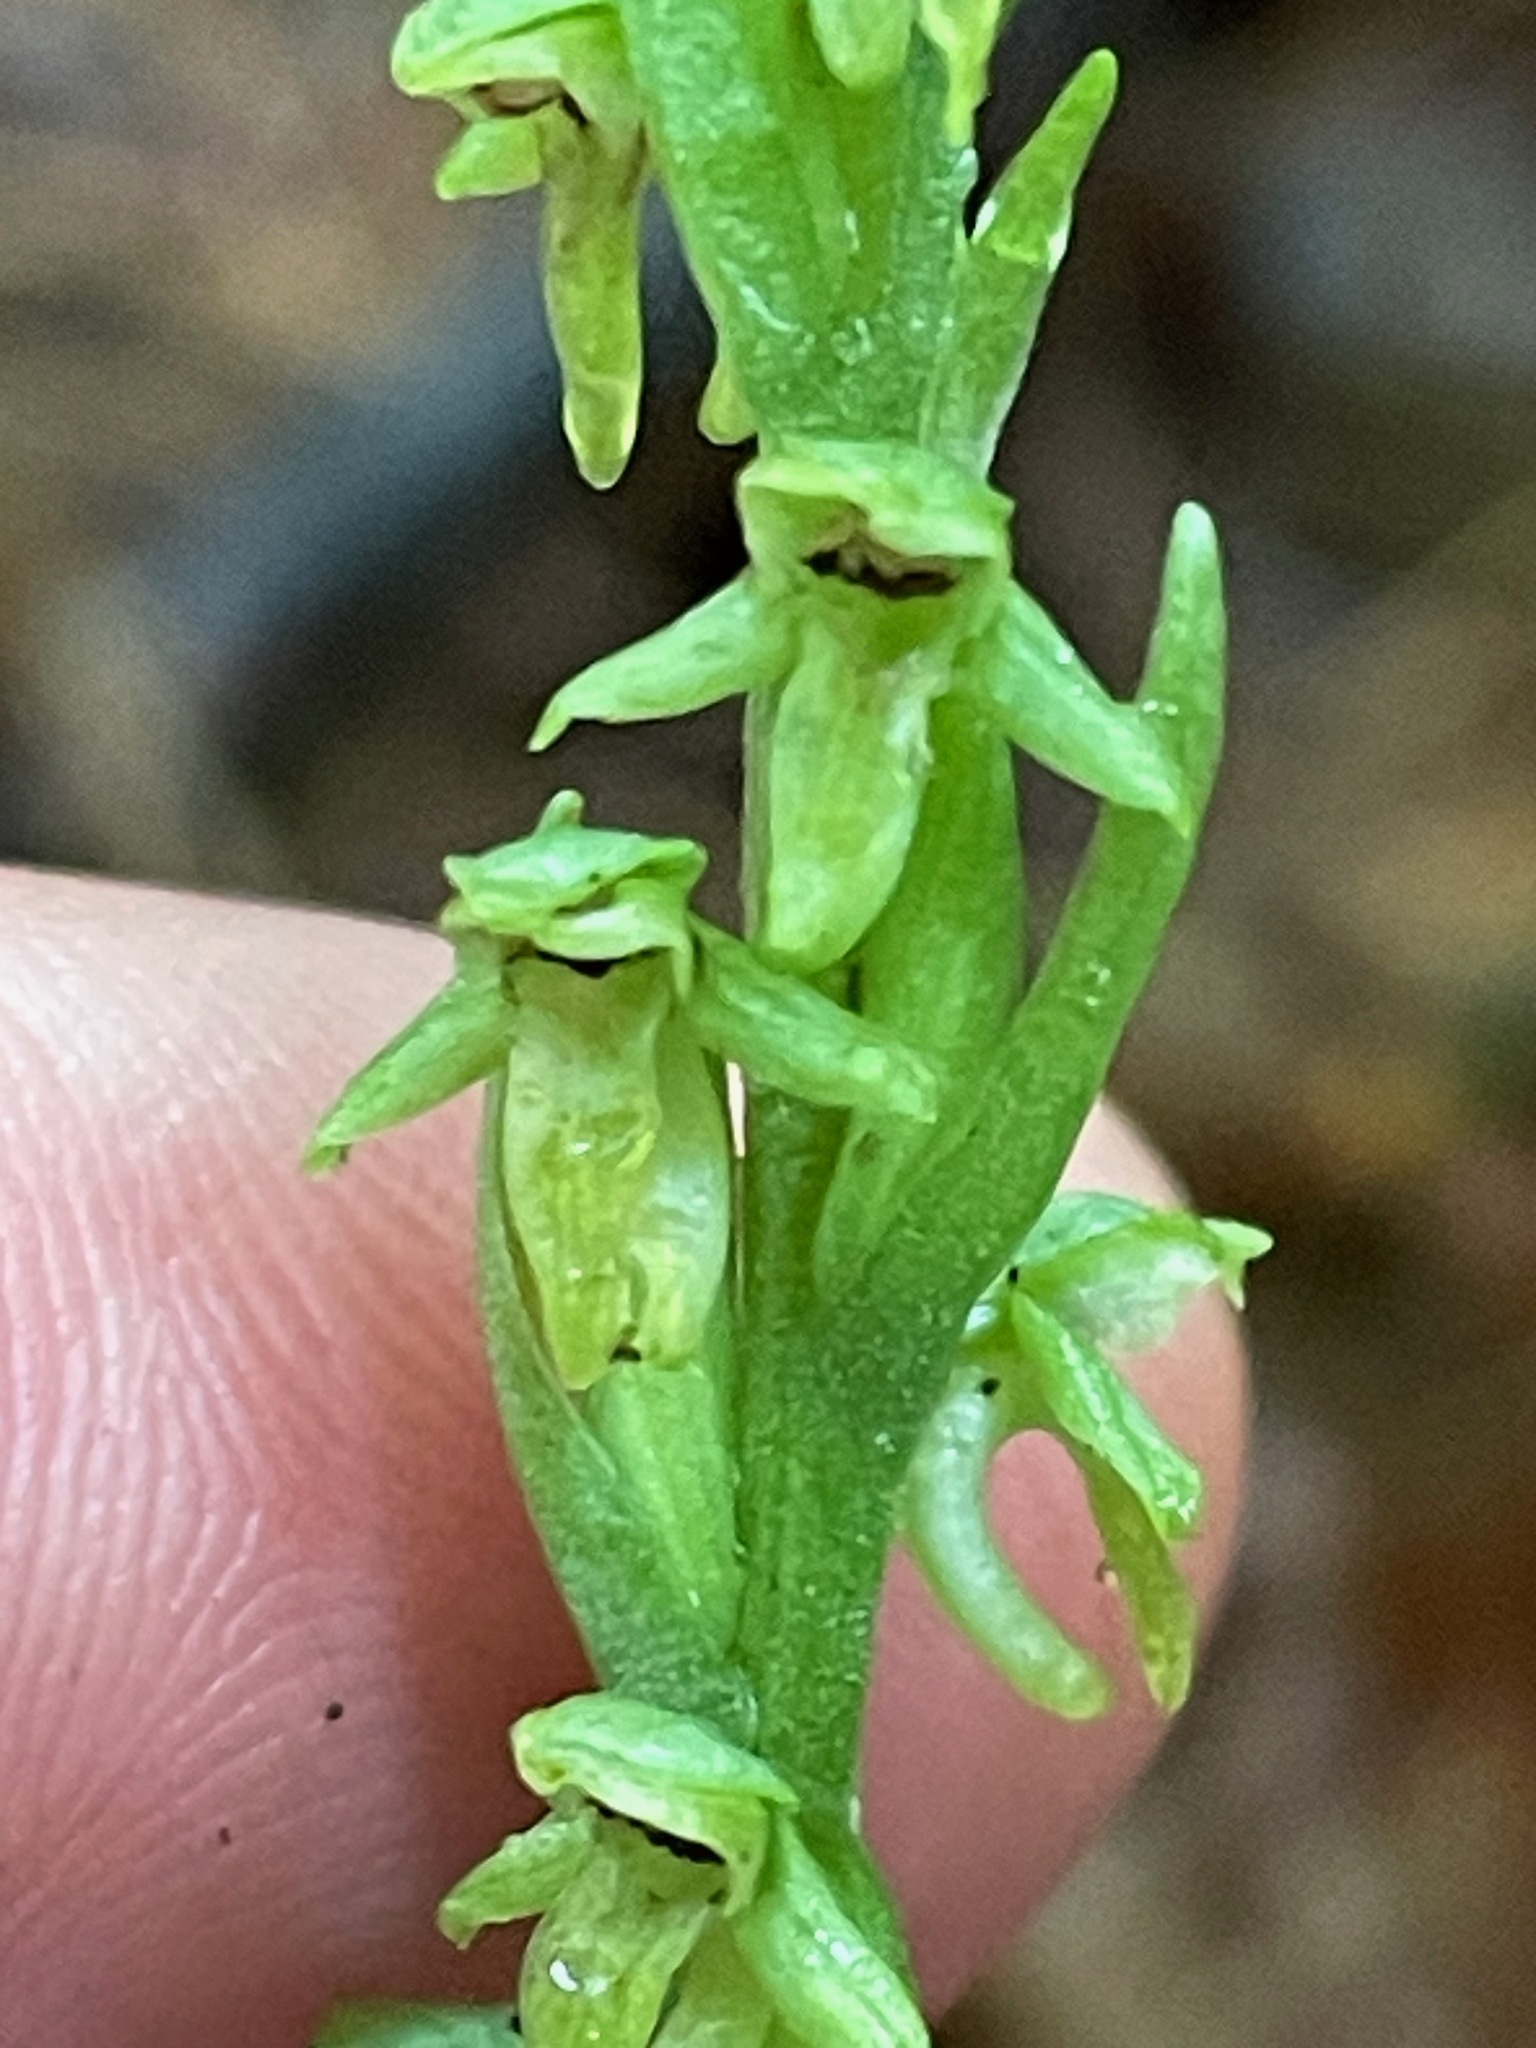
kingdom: Plantae
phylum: Tracheophyta
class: Liliopsida
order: Asparagales
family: Orchidaceae
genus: Platanthera
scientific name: Platanthera aquilonis
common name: Northern green orchid
